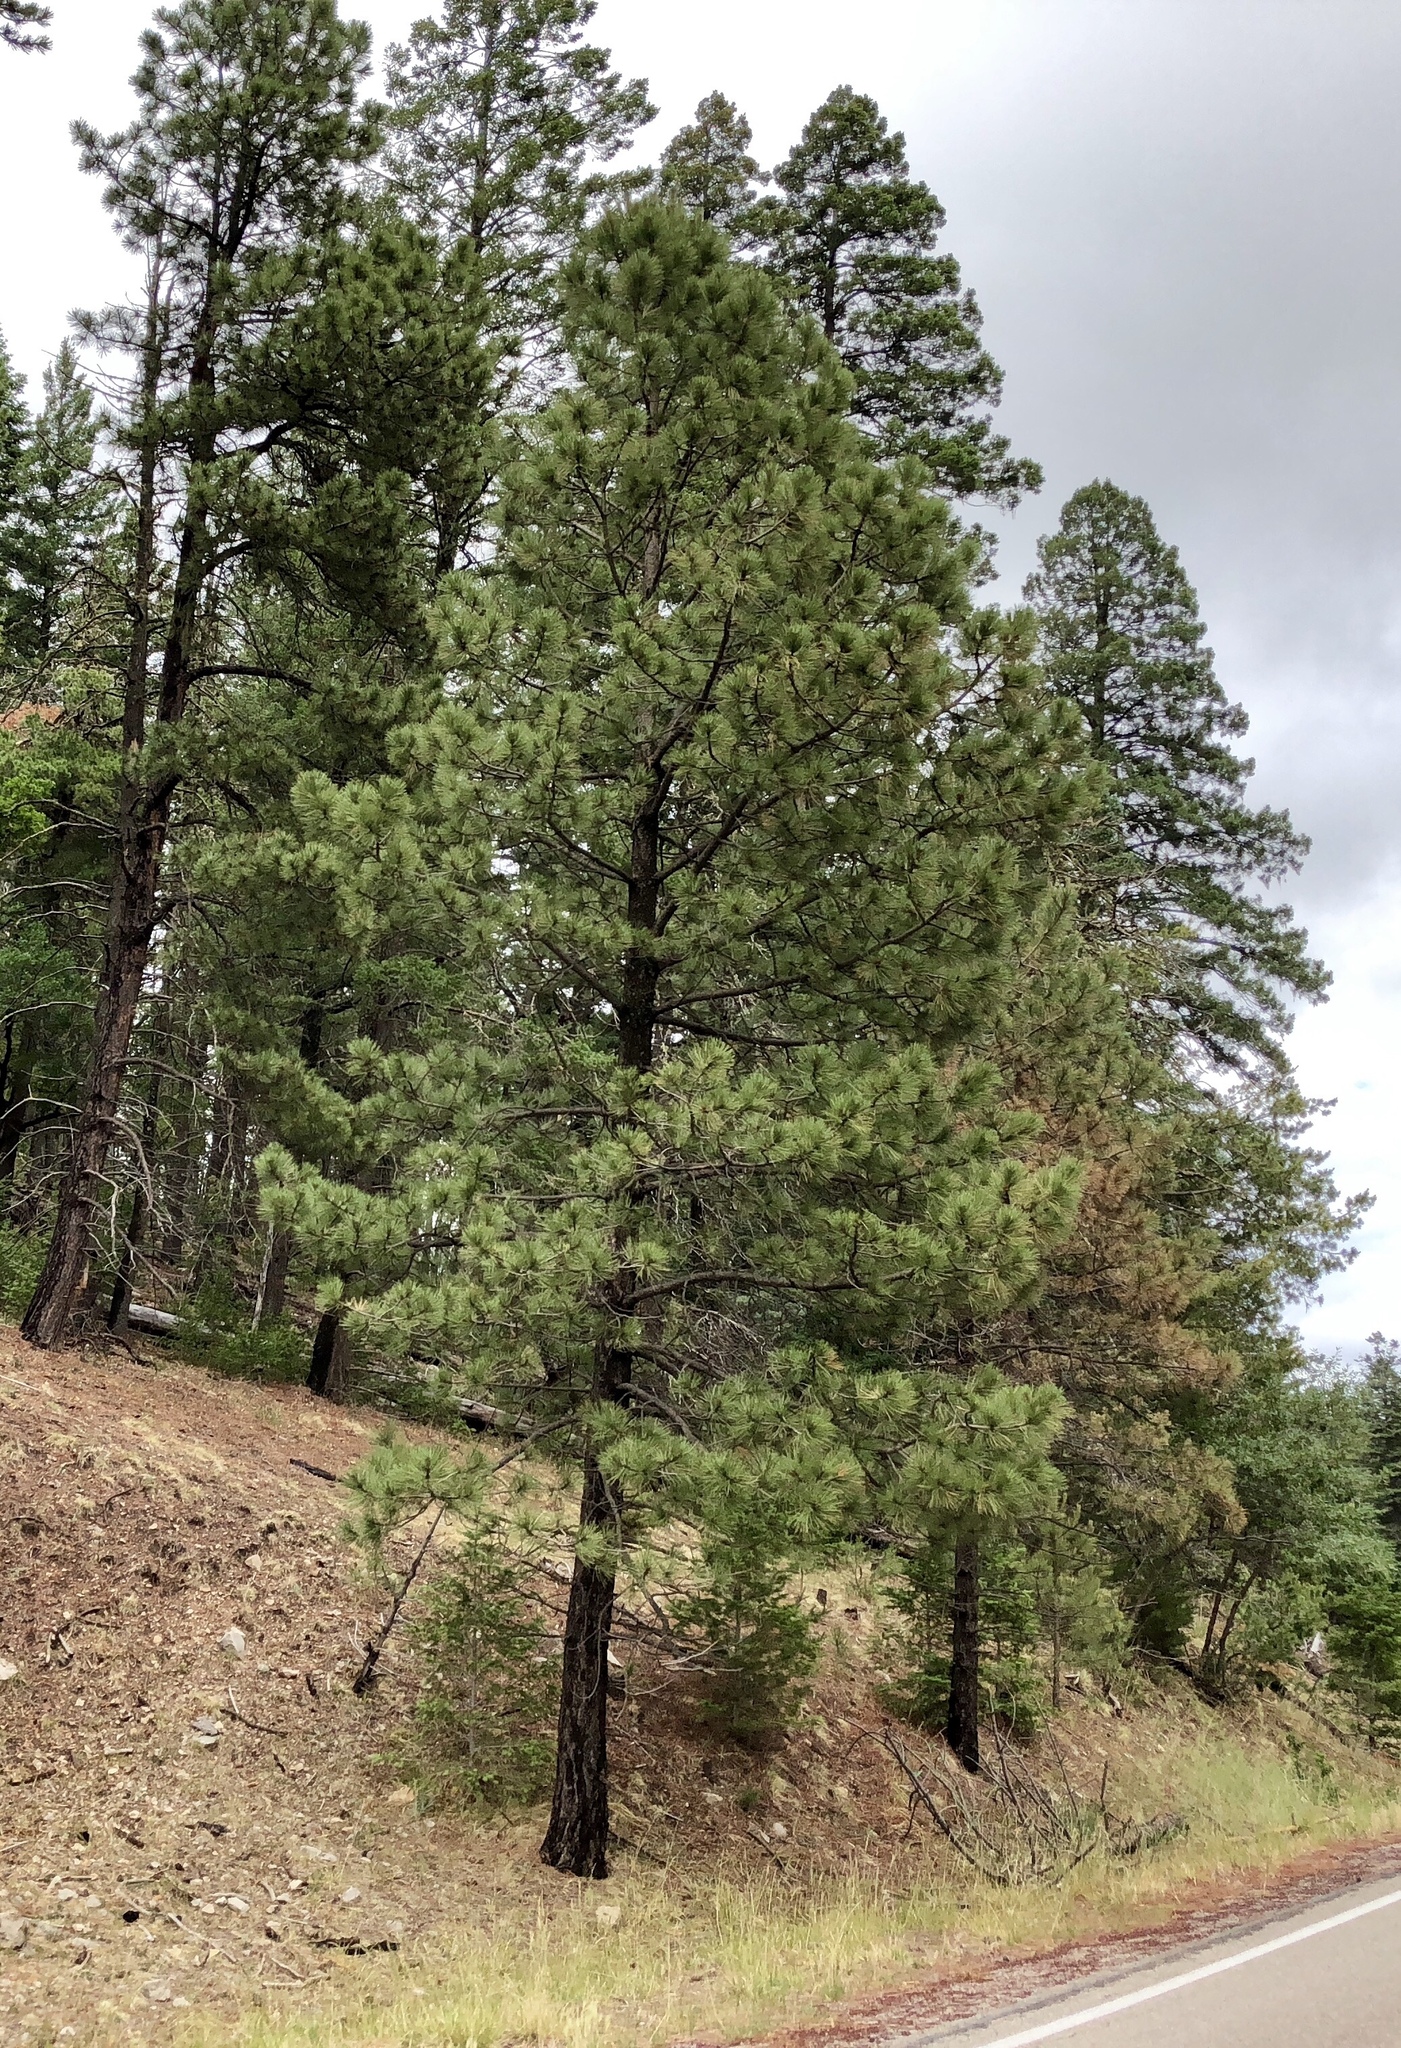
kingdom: Plantae
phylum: Tracheophyta
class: Pinopsida
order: Pinales
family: Pinaceae
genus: Pinus
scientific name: Pinus ponderosa
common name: Western yellow-pine
